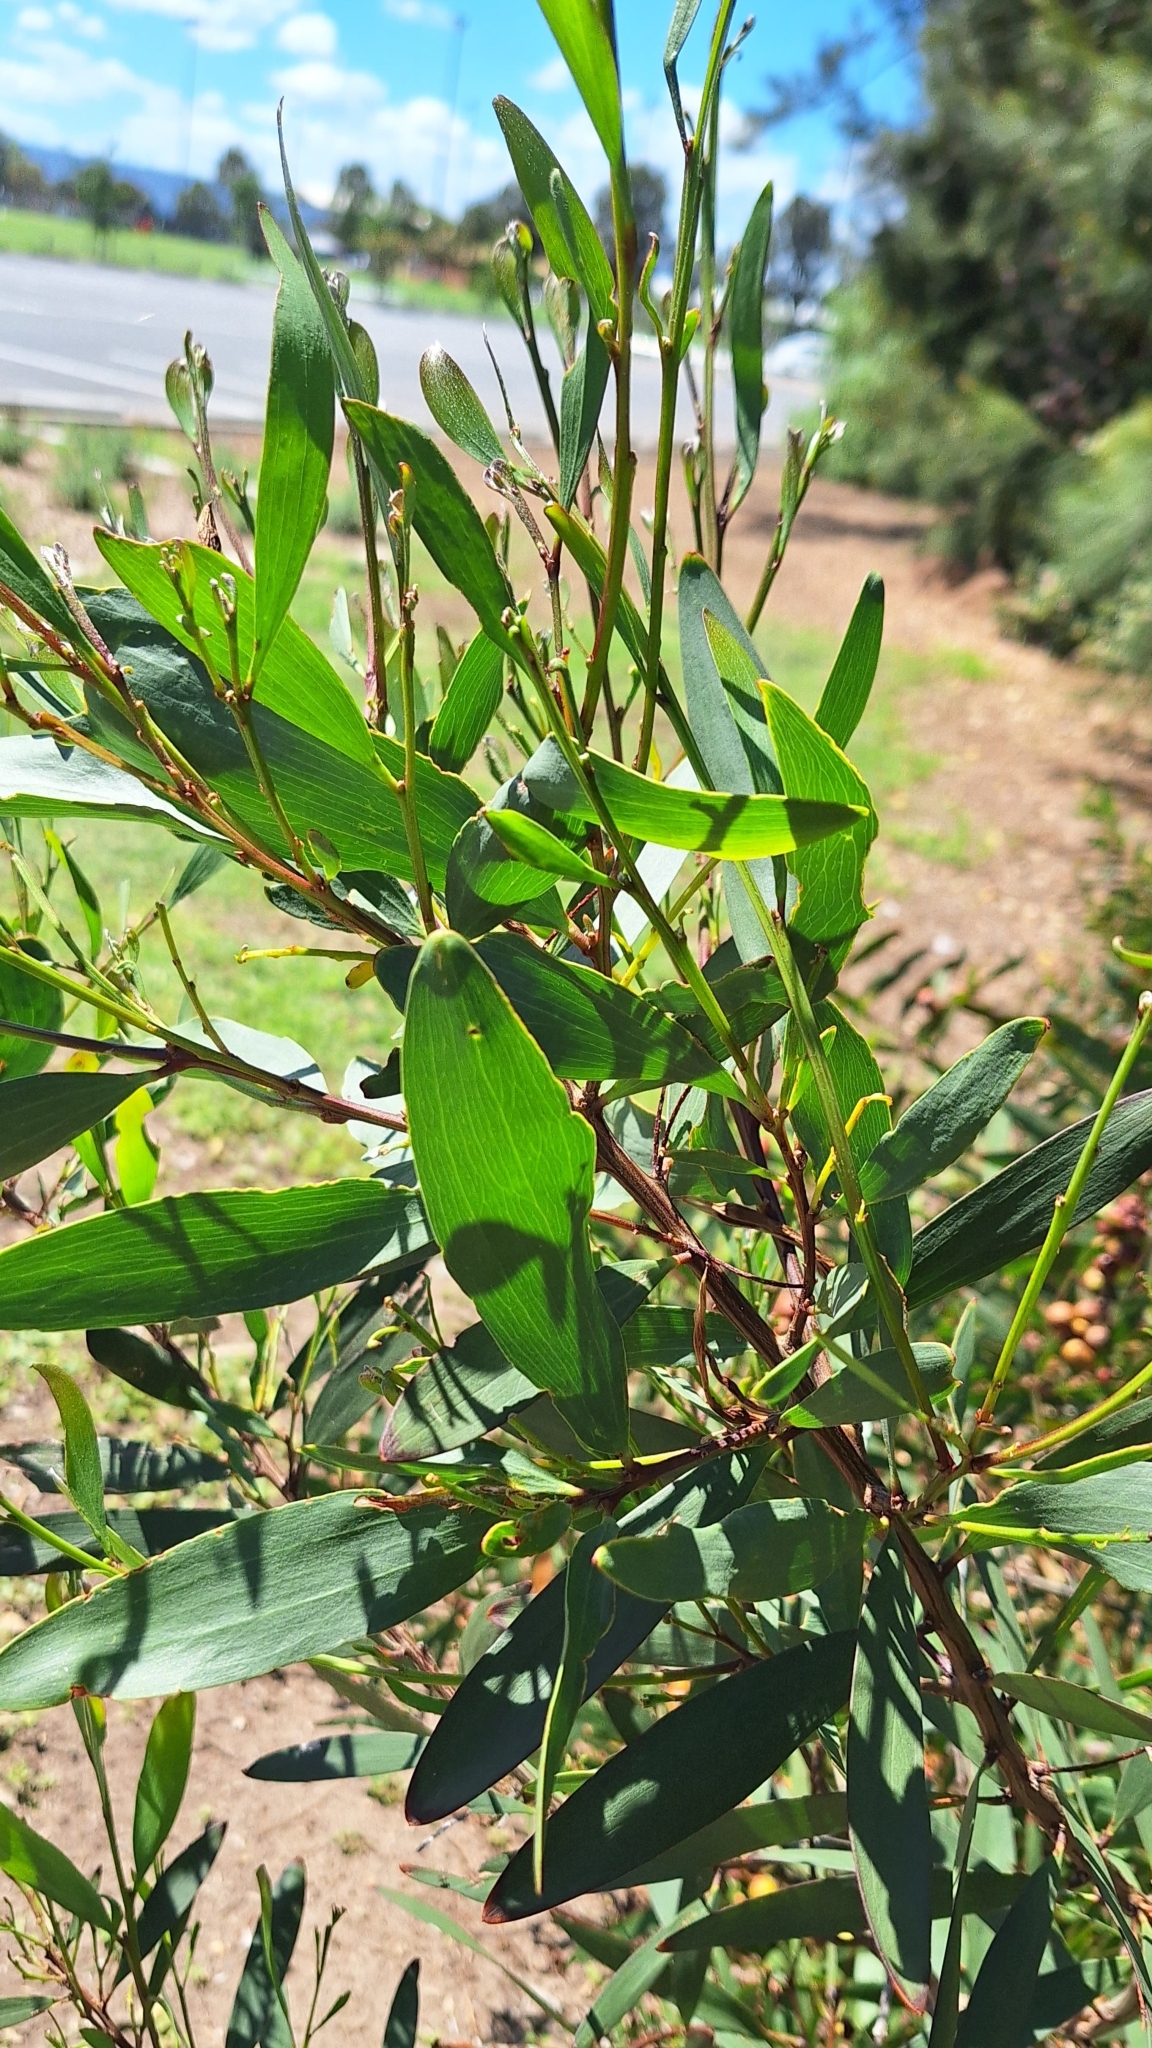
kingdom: Plantae
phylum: Tracheophyta
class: Magnoliopsida
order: Fabales
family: Fabaceae
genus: Acacia
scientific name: Acacia longifolia
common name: Sydney golden wattle
